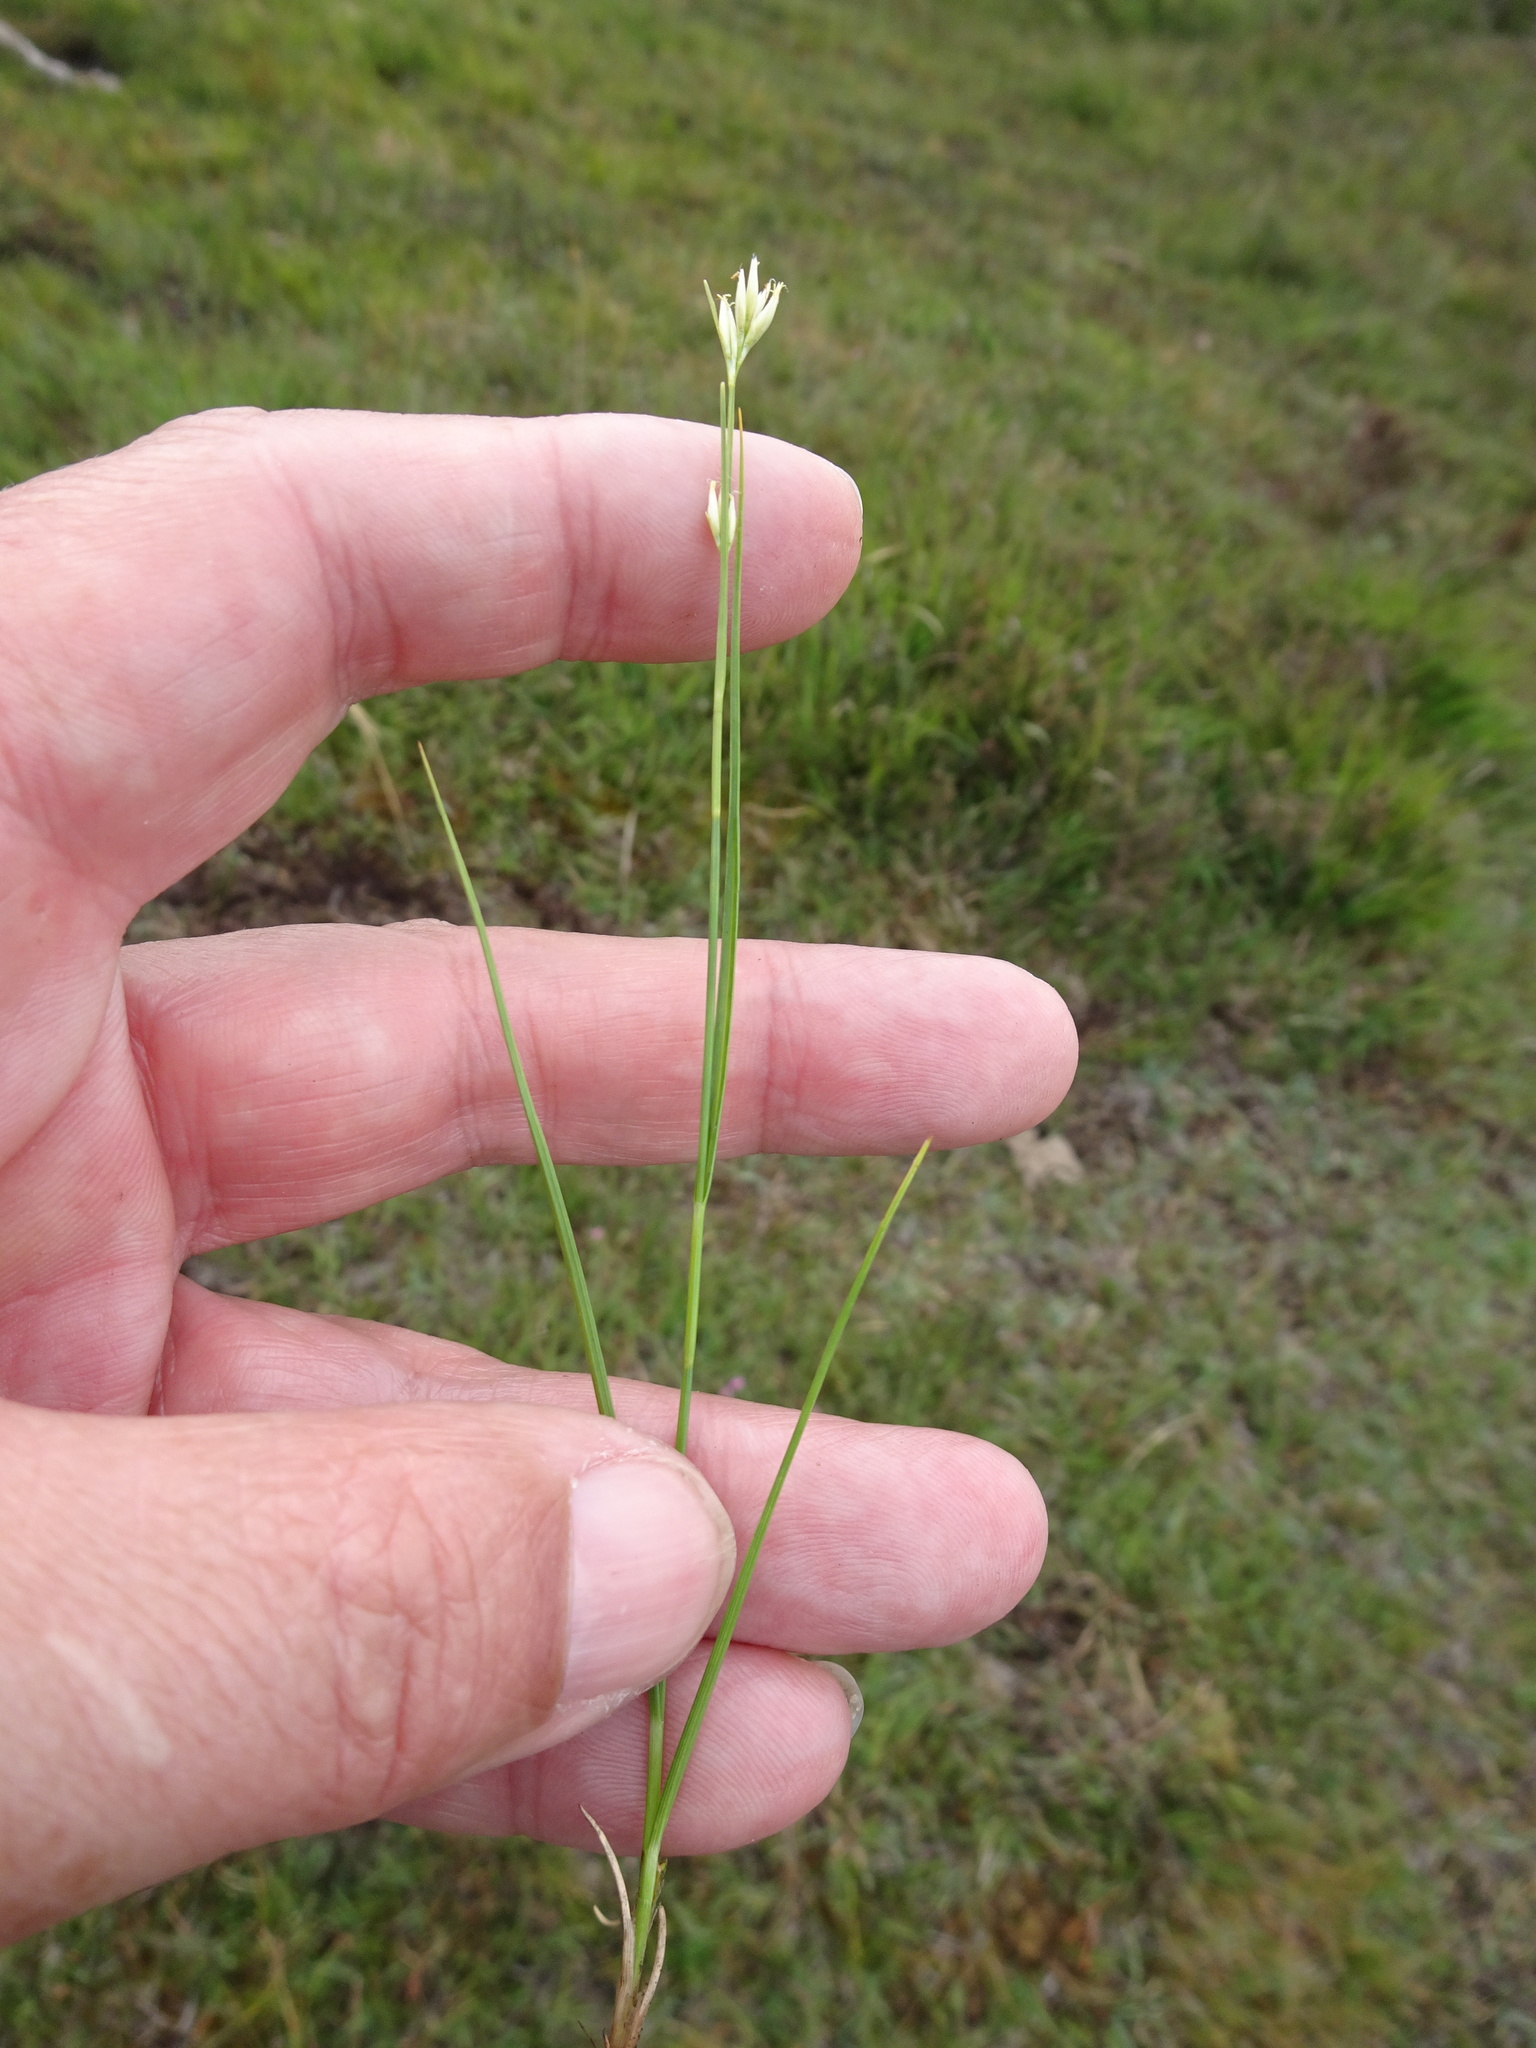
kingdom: Plantae
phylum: Tracheophyta
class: Liliopsida
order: Poales
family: Cyperaceae
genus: Rhynchospora
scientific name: Rhynchospora alba
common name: White beak-sedge
